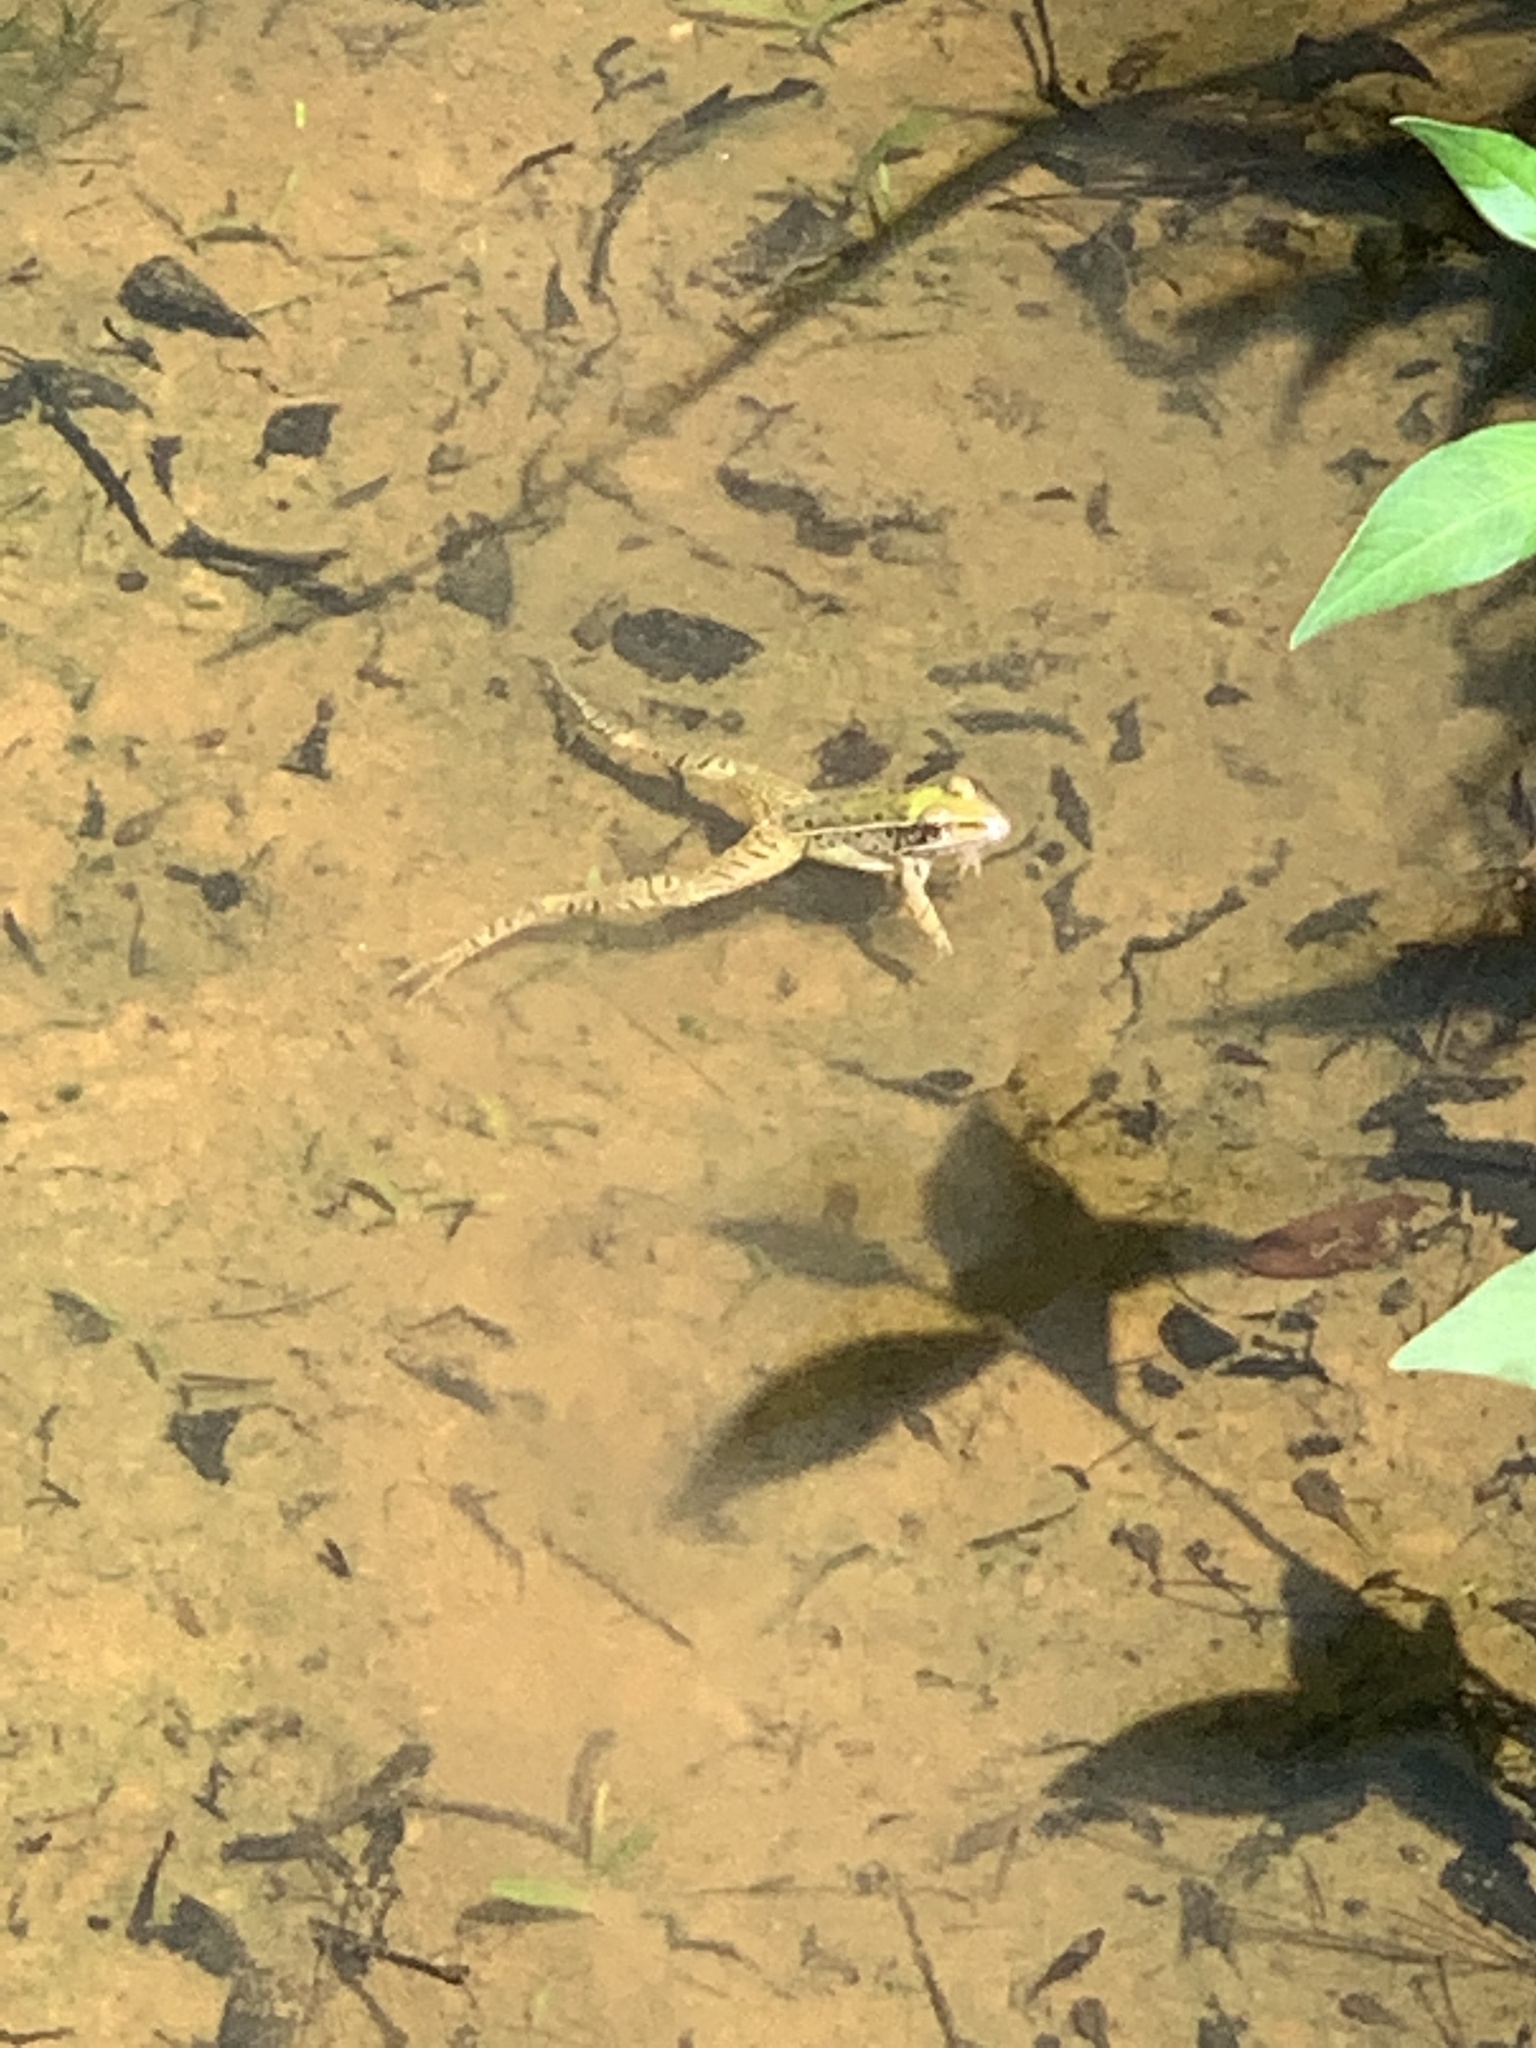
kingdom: Animalia
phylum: Chordata
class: Amphibia
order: Anura
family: Ranidae
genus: Lithobates
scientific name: Lithobates sphenocephalus
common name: Southern leopard frog
